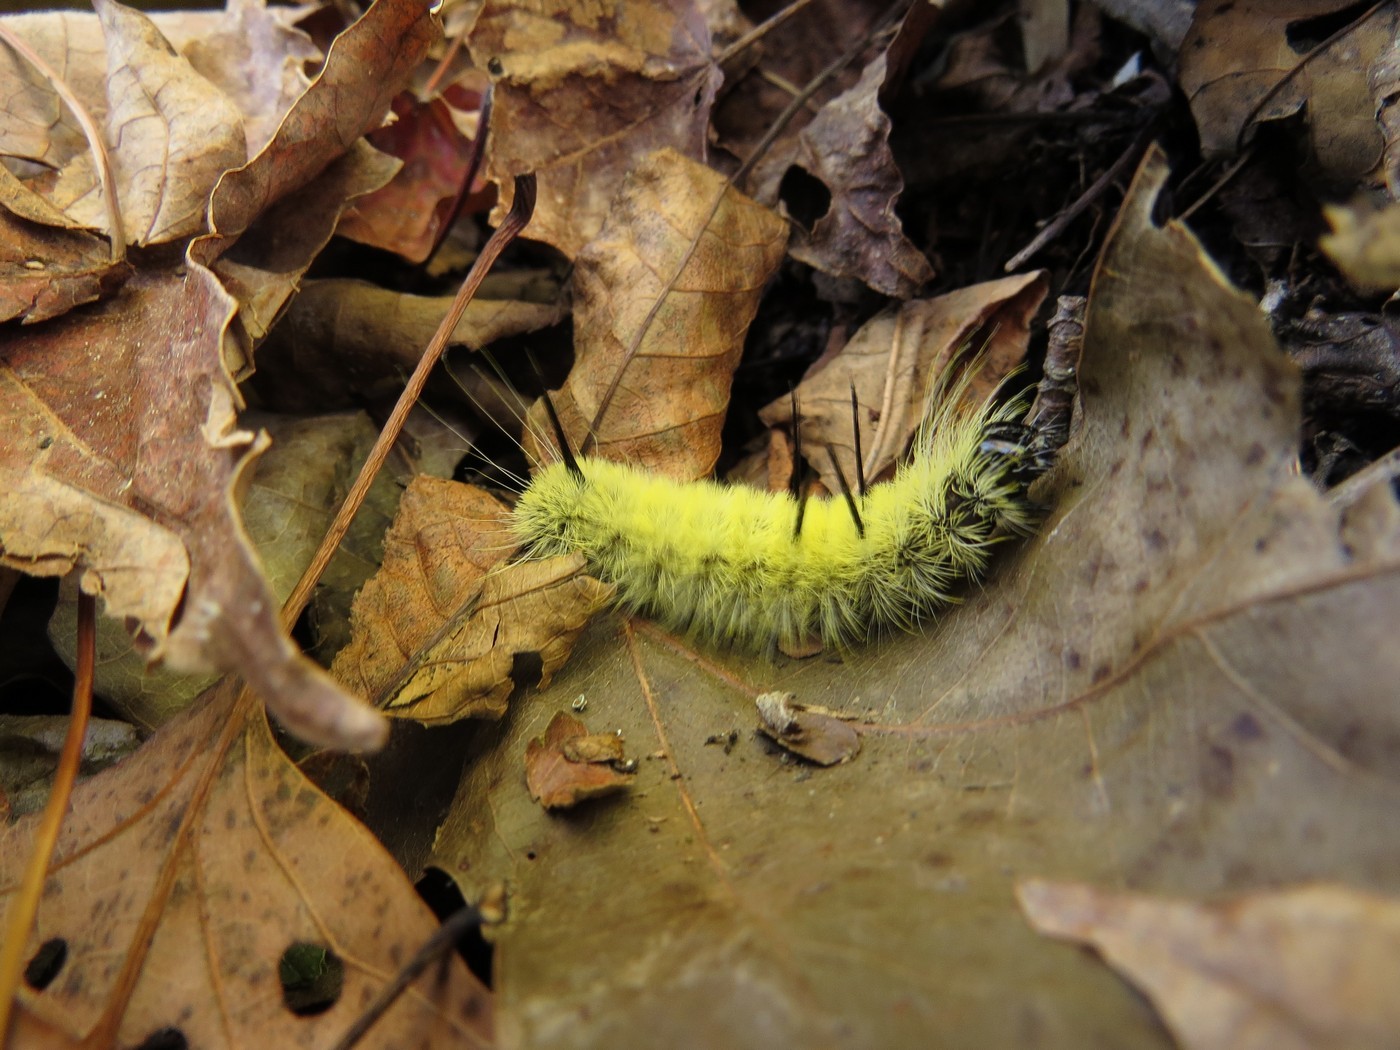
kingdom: Animalia
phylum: Arthropoda
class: Insecta
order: Lepidoptera
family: Noctuidae
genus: Acronicta
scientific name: Acronicta americana
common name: American dagger
